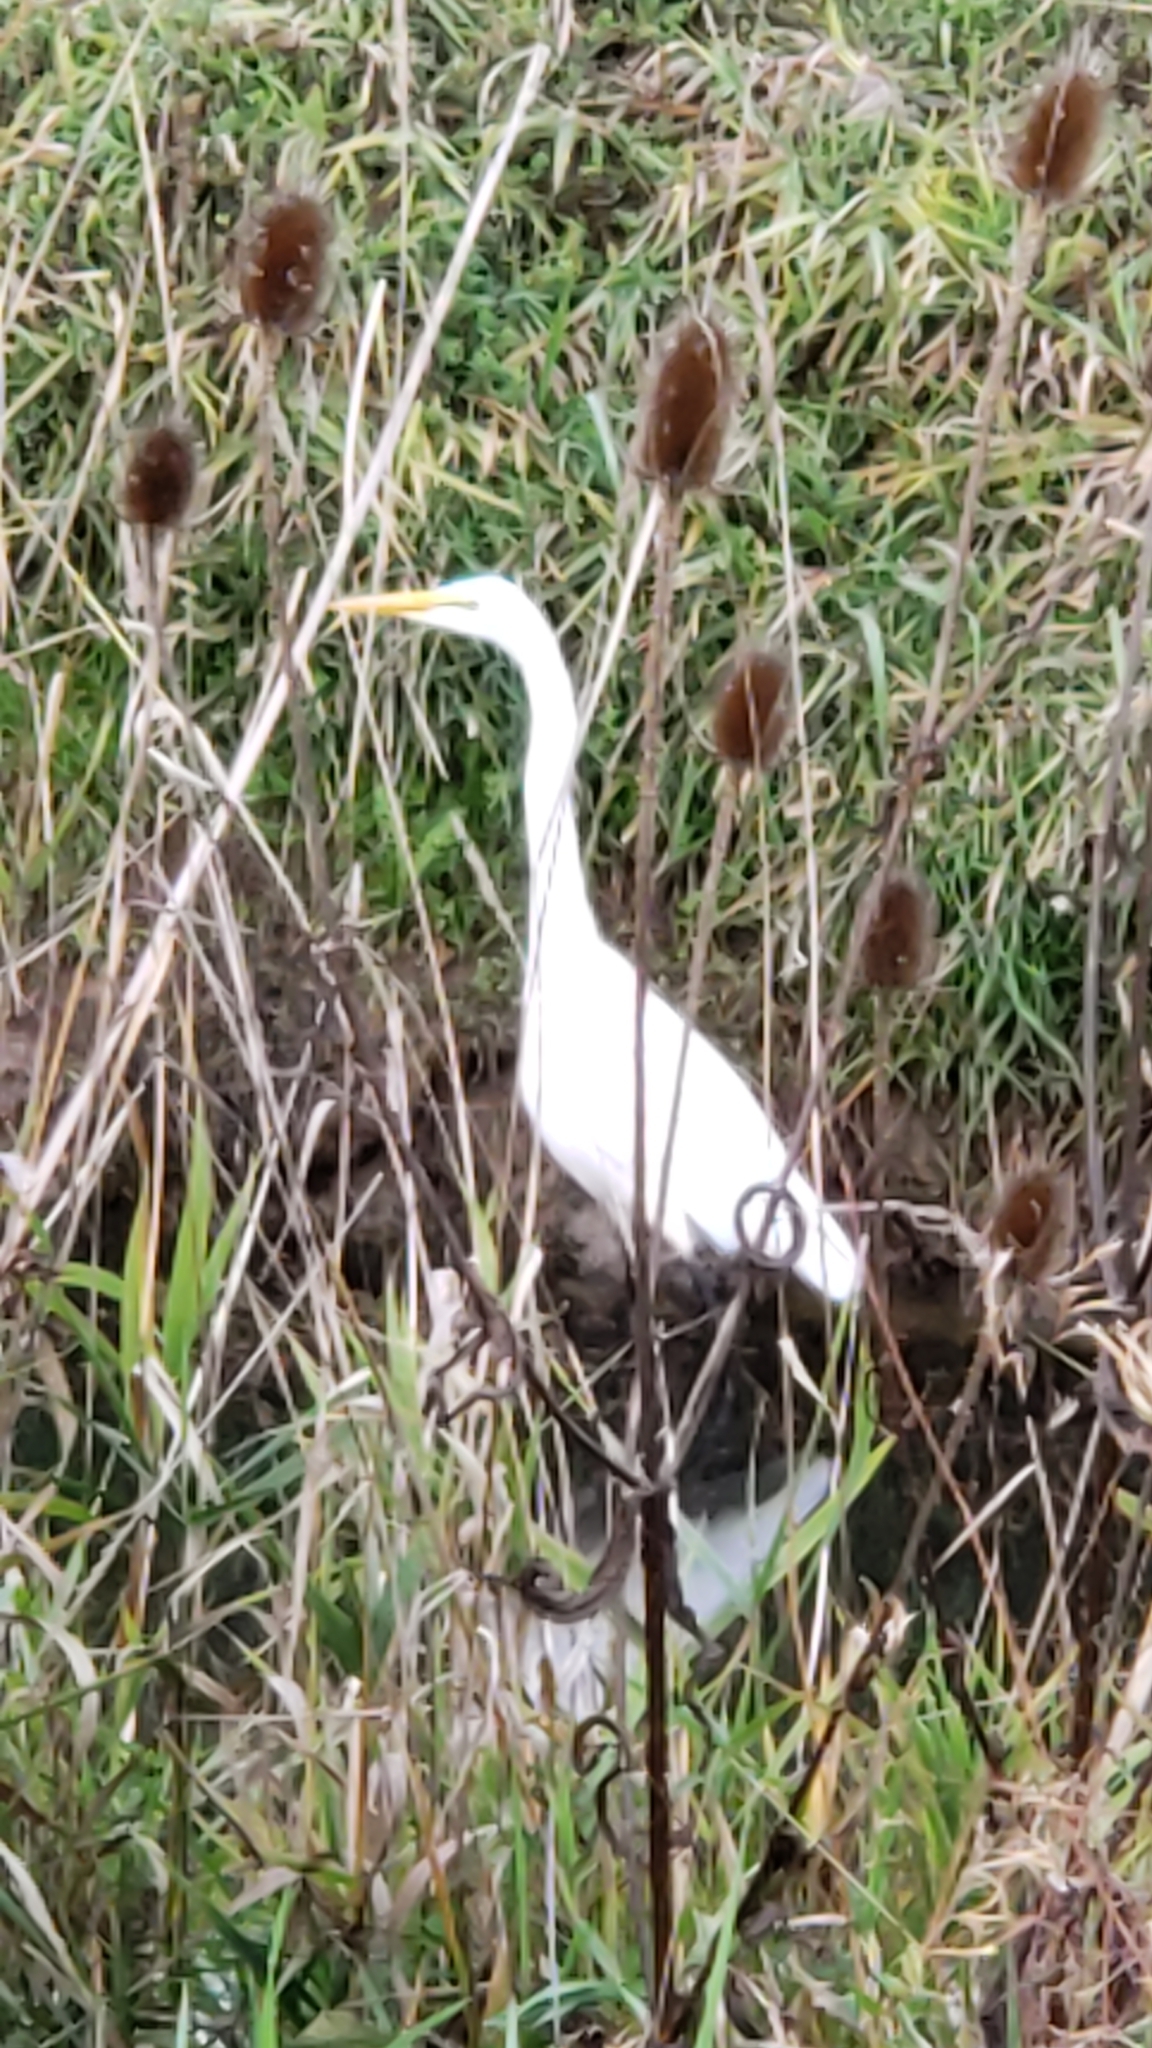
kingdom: Animalia
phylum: Chordata
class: Aves
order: Pelecaniformes
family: Ardeidae
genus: Ardea
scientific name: Ardea alba
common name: Great egret
